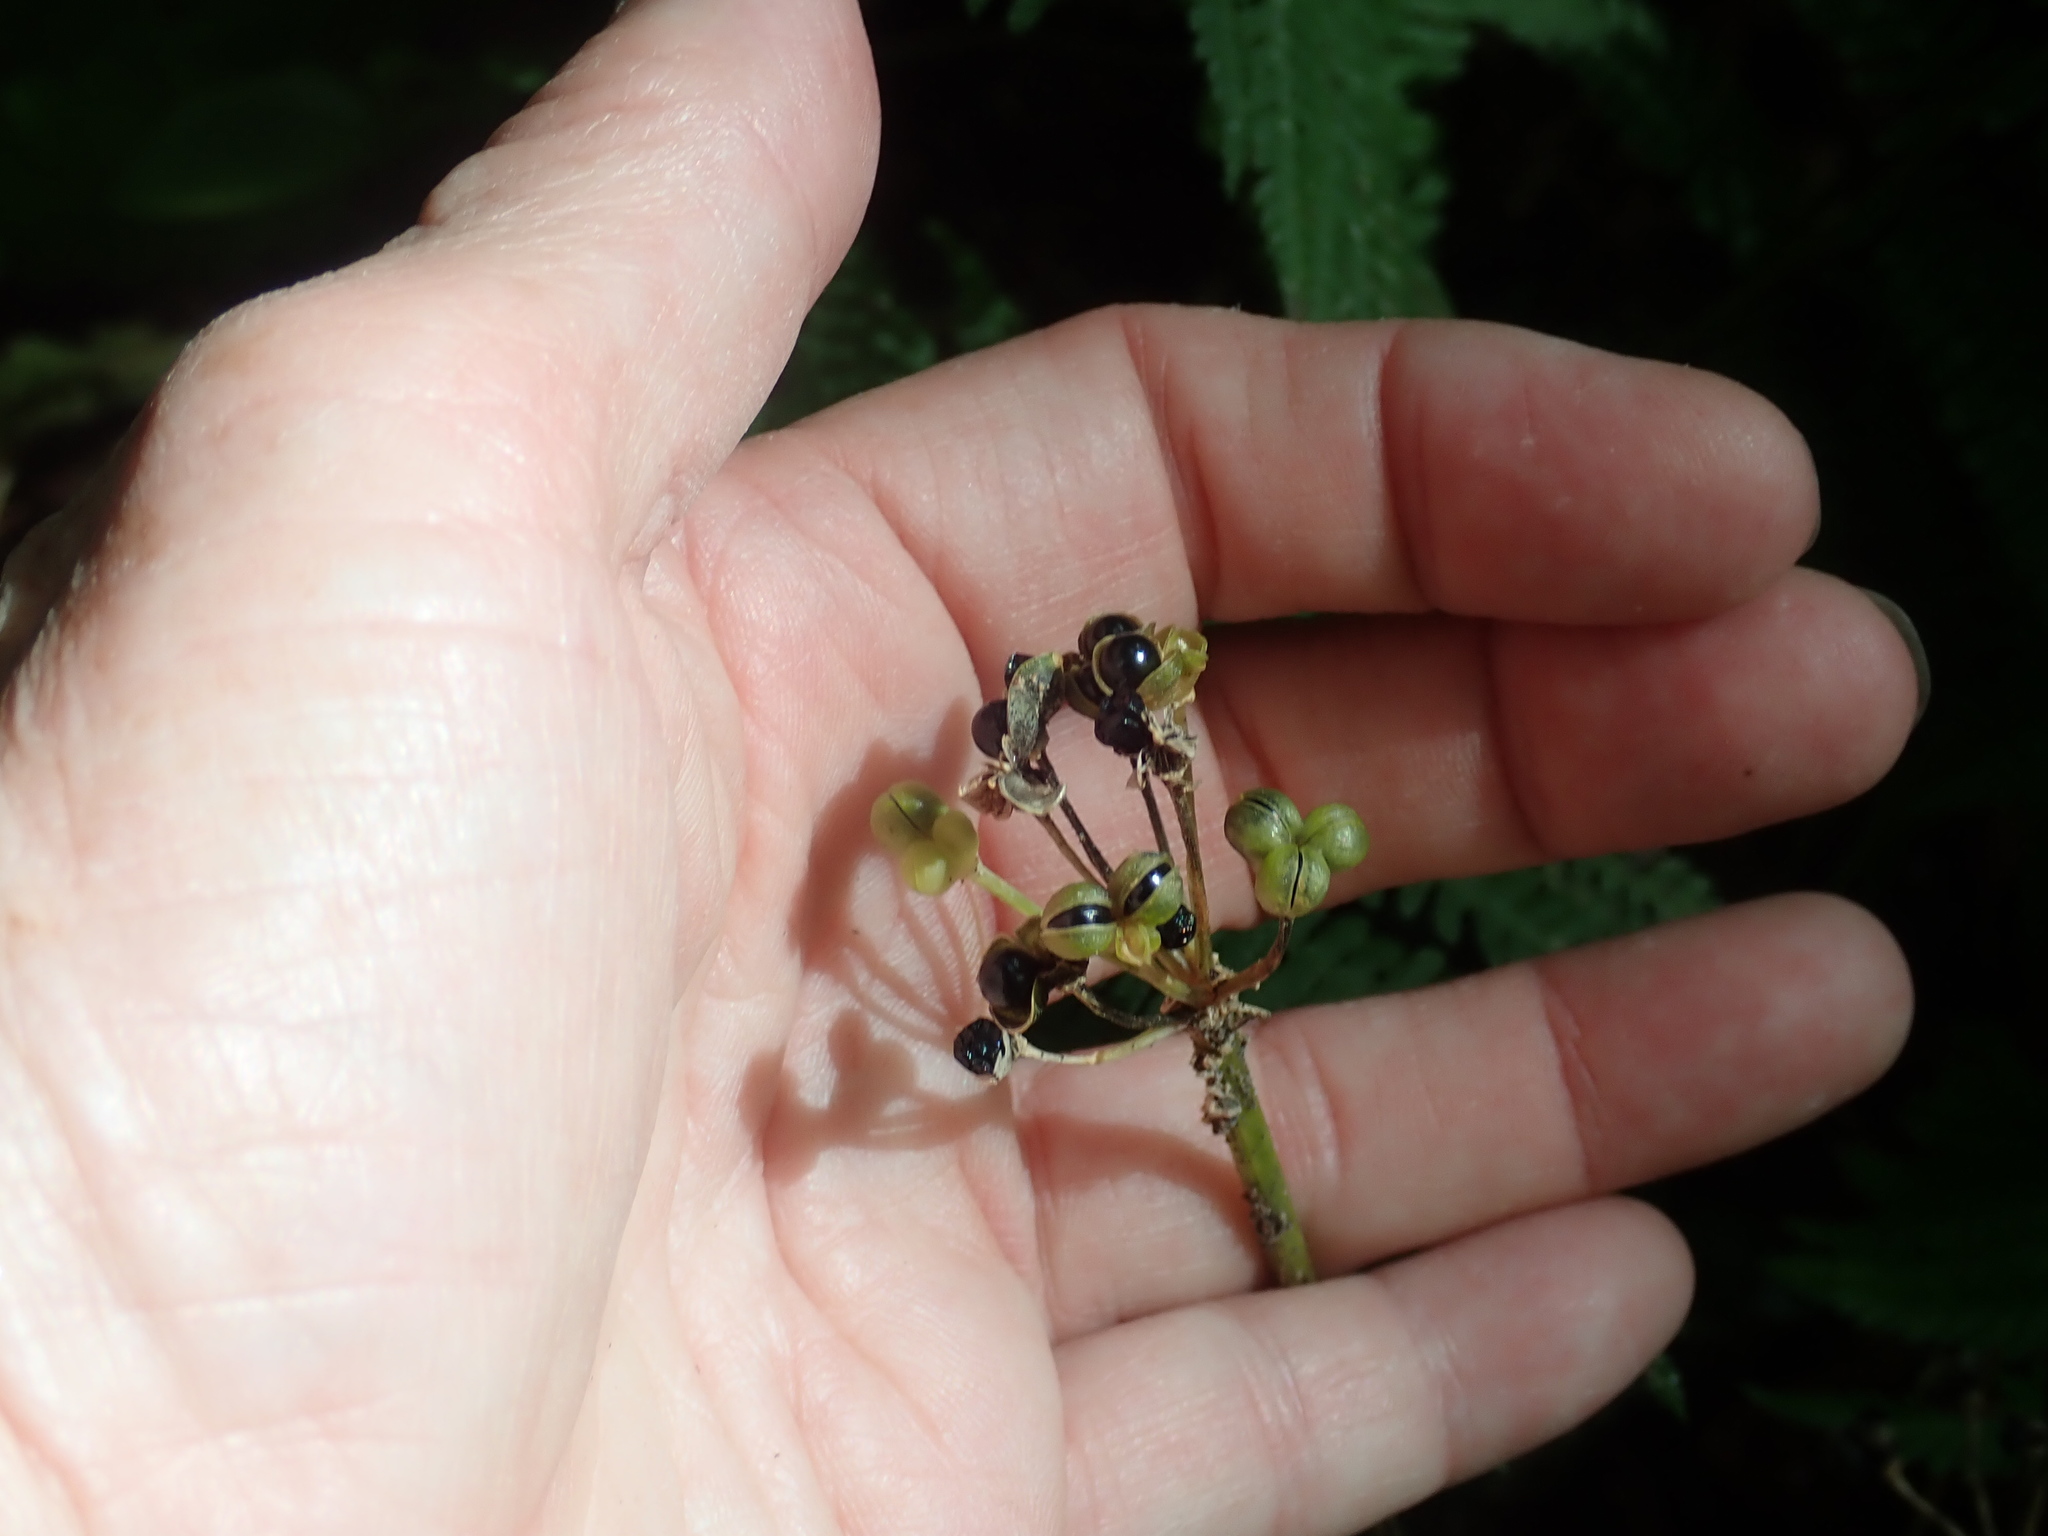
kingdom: Plantae
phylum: Tracheophyta
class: Liliopsida
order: Asparagales
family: Amaryllidaceae
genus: Allium
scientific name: Allium tricoccum
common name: Ramp
